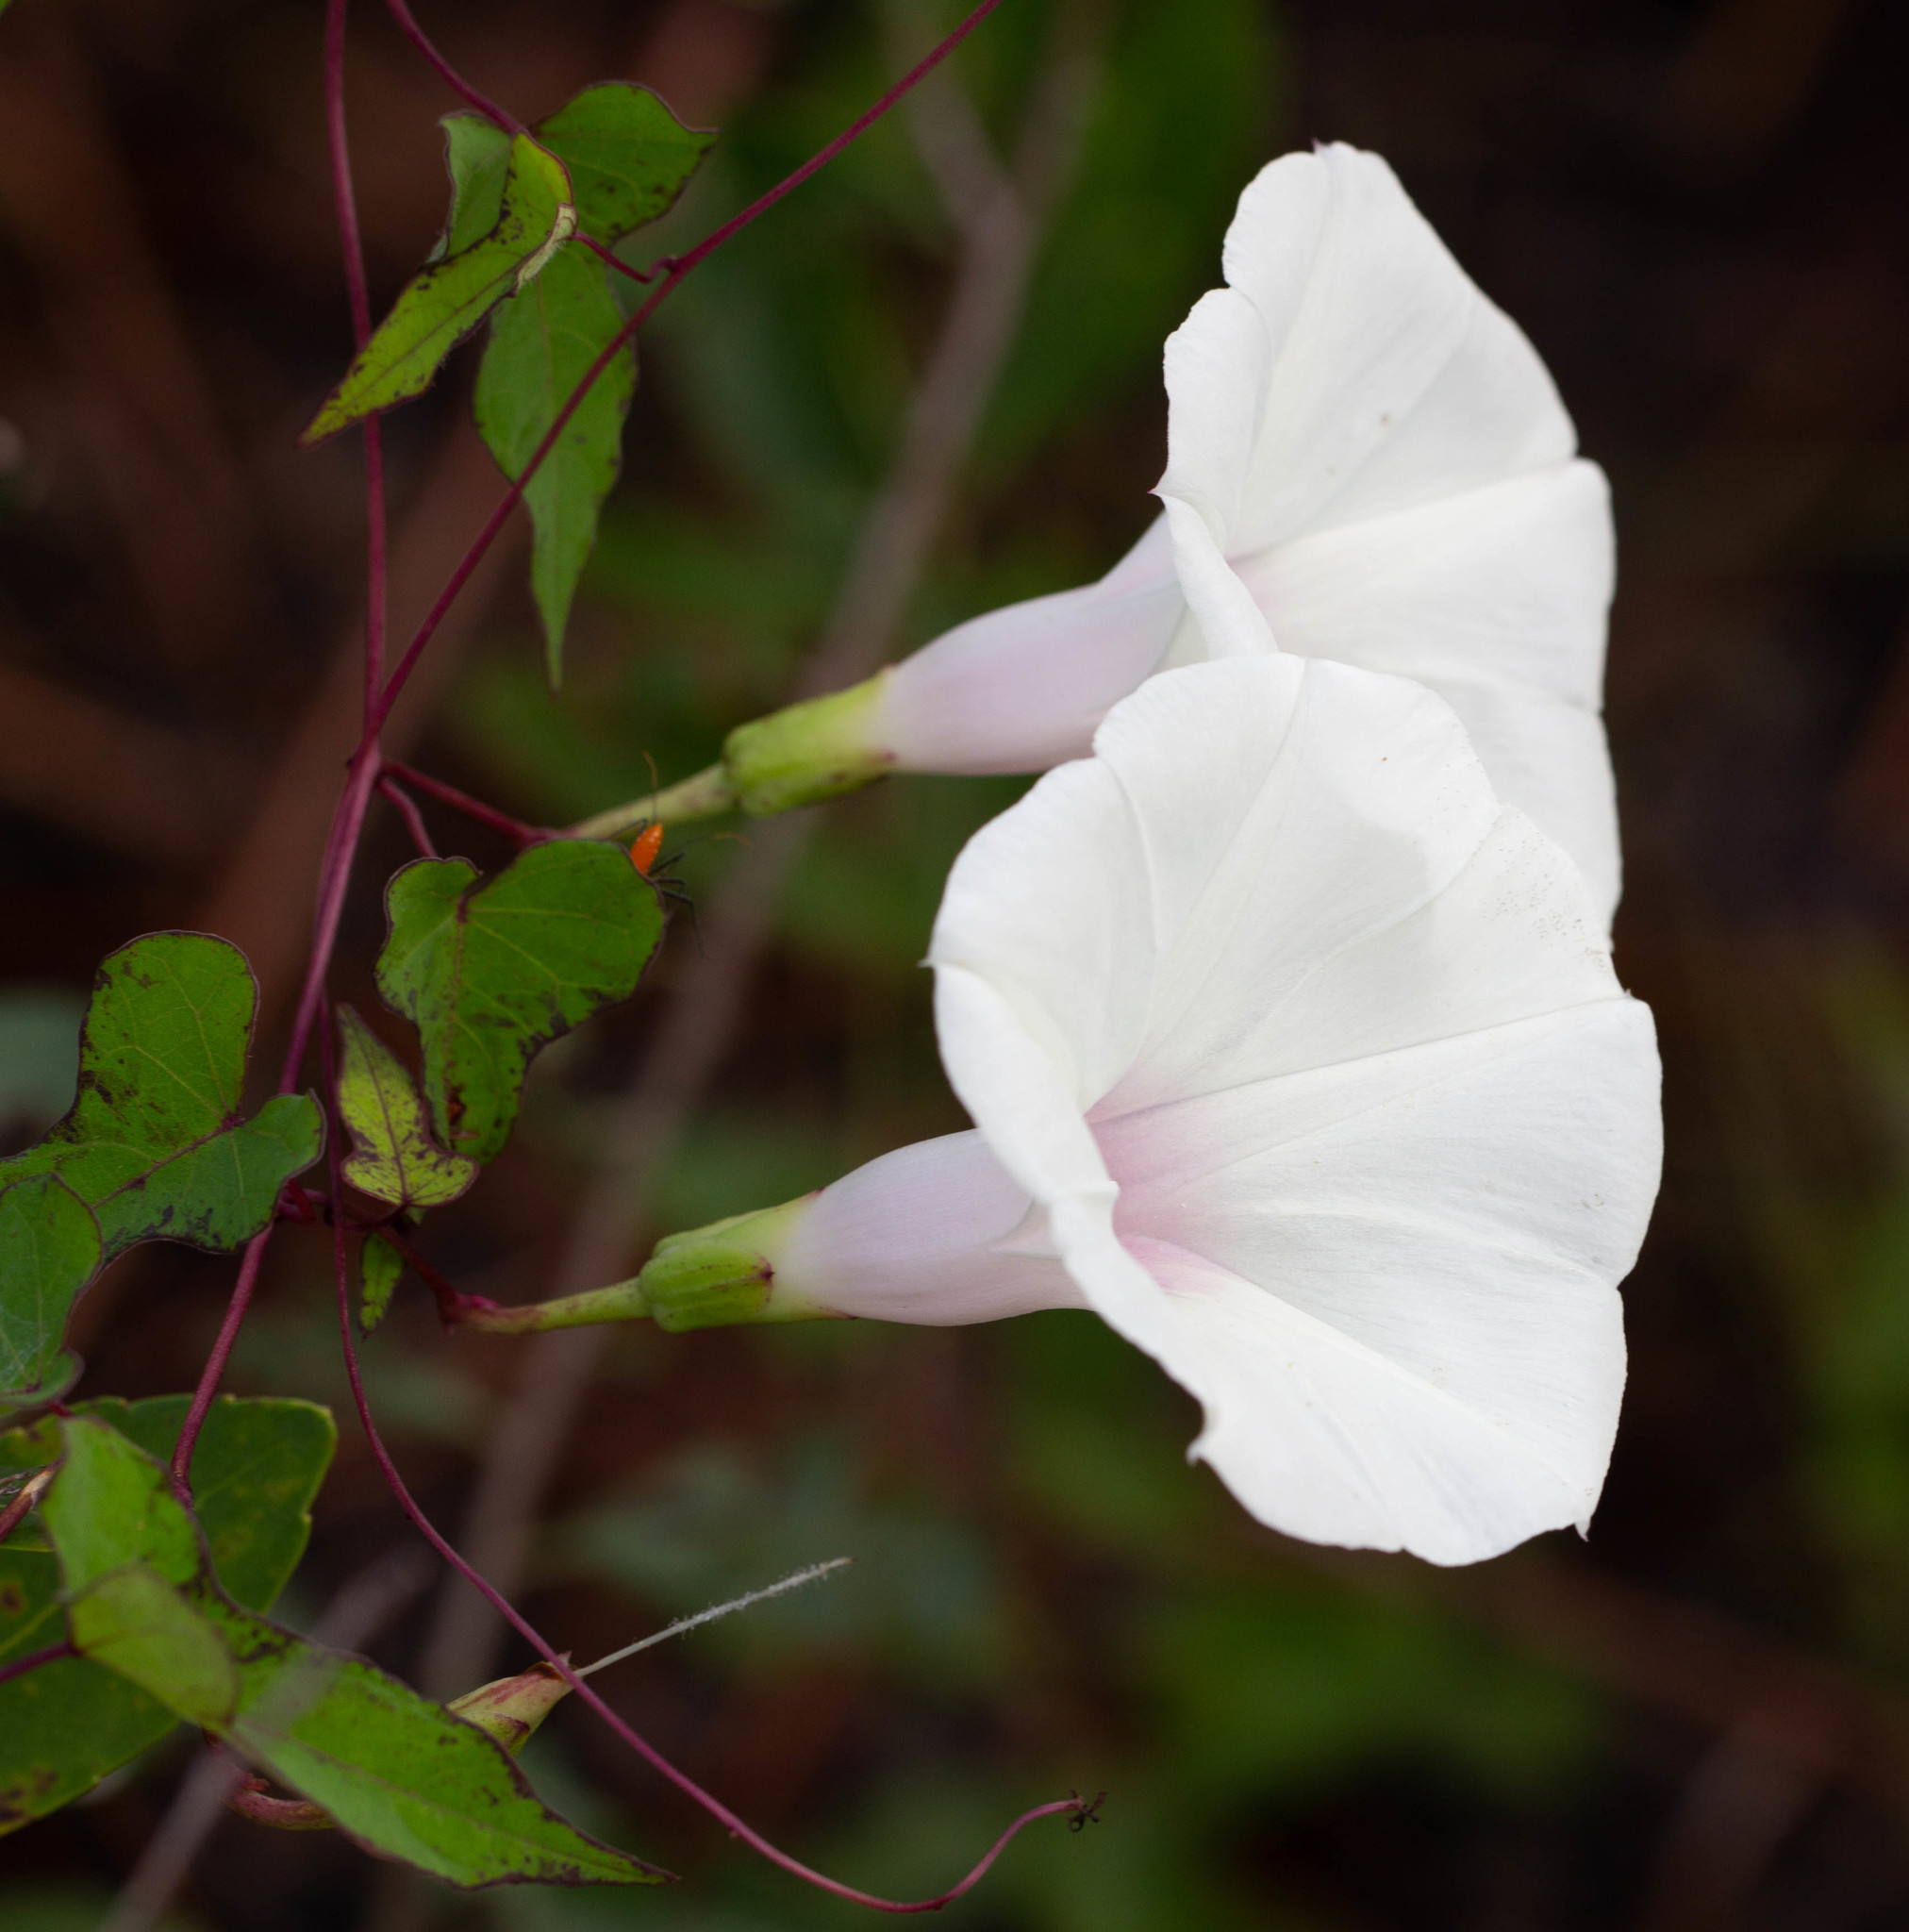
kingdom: Plantae
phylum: Tracheophyta
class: Magnoliopsida
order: Solanales
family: Convolvulaceae
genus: Ipomoea
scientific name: Ipomoea pandurata
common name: Man-of-the-earth
